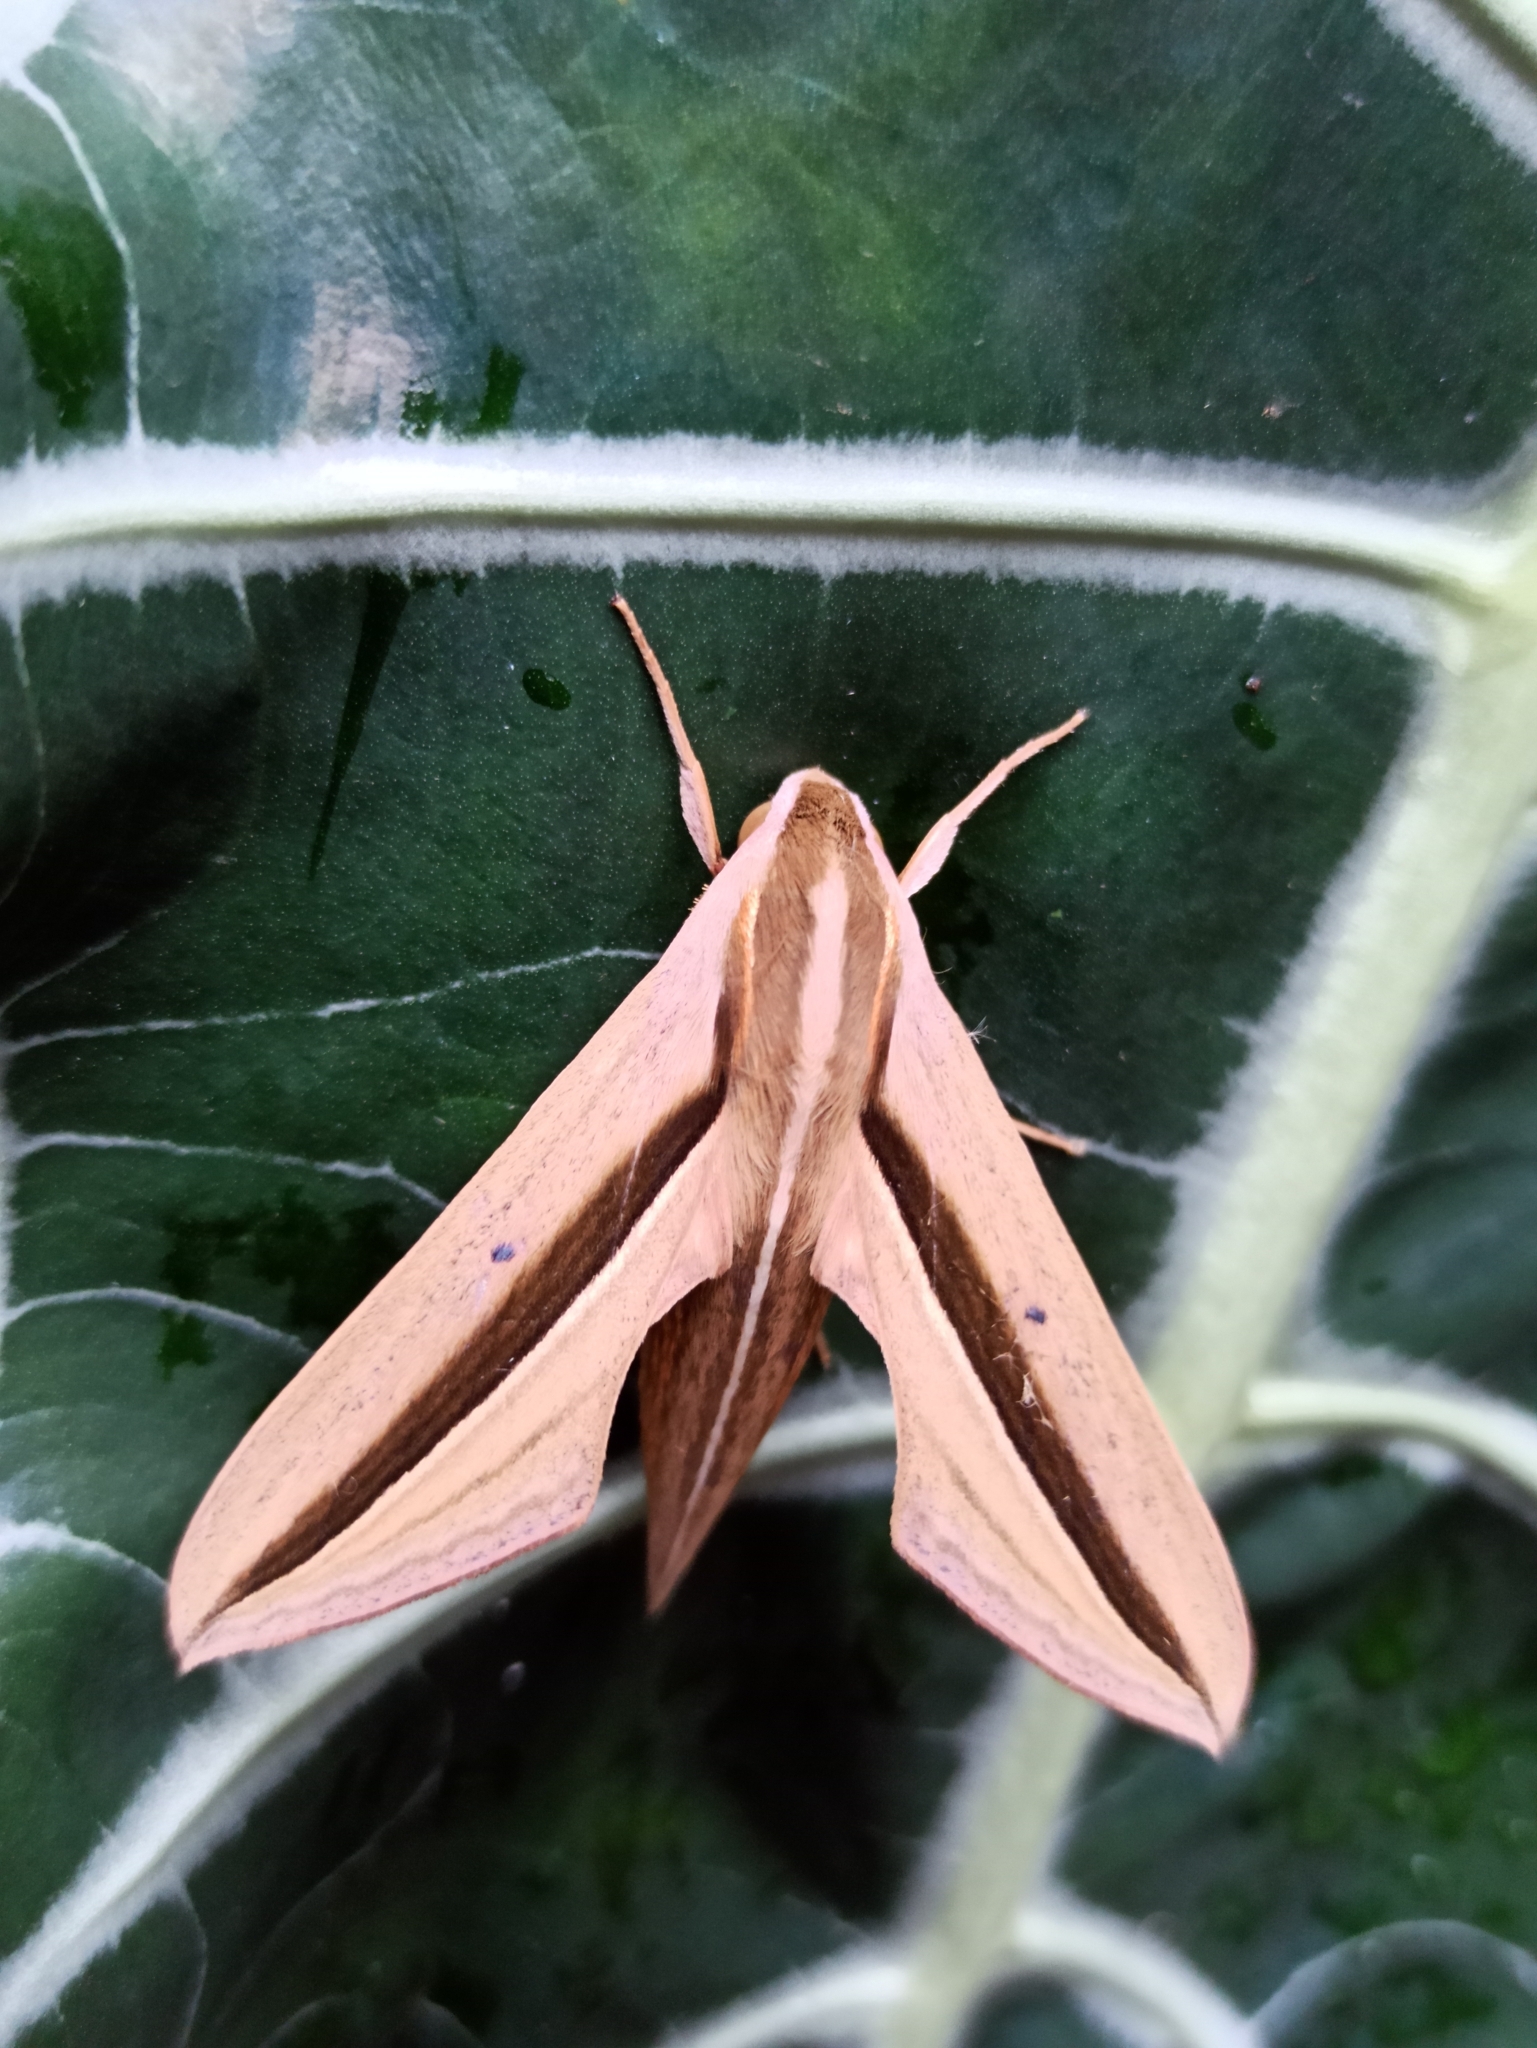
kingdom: Animalia
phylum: Arthropoda
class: Insecta
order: Lepidoptera
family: Sphingidae
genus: Theretra
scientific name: Theretra silhetensis
